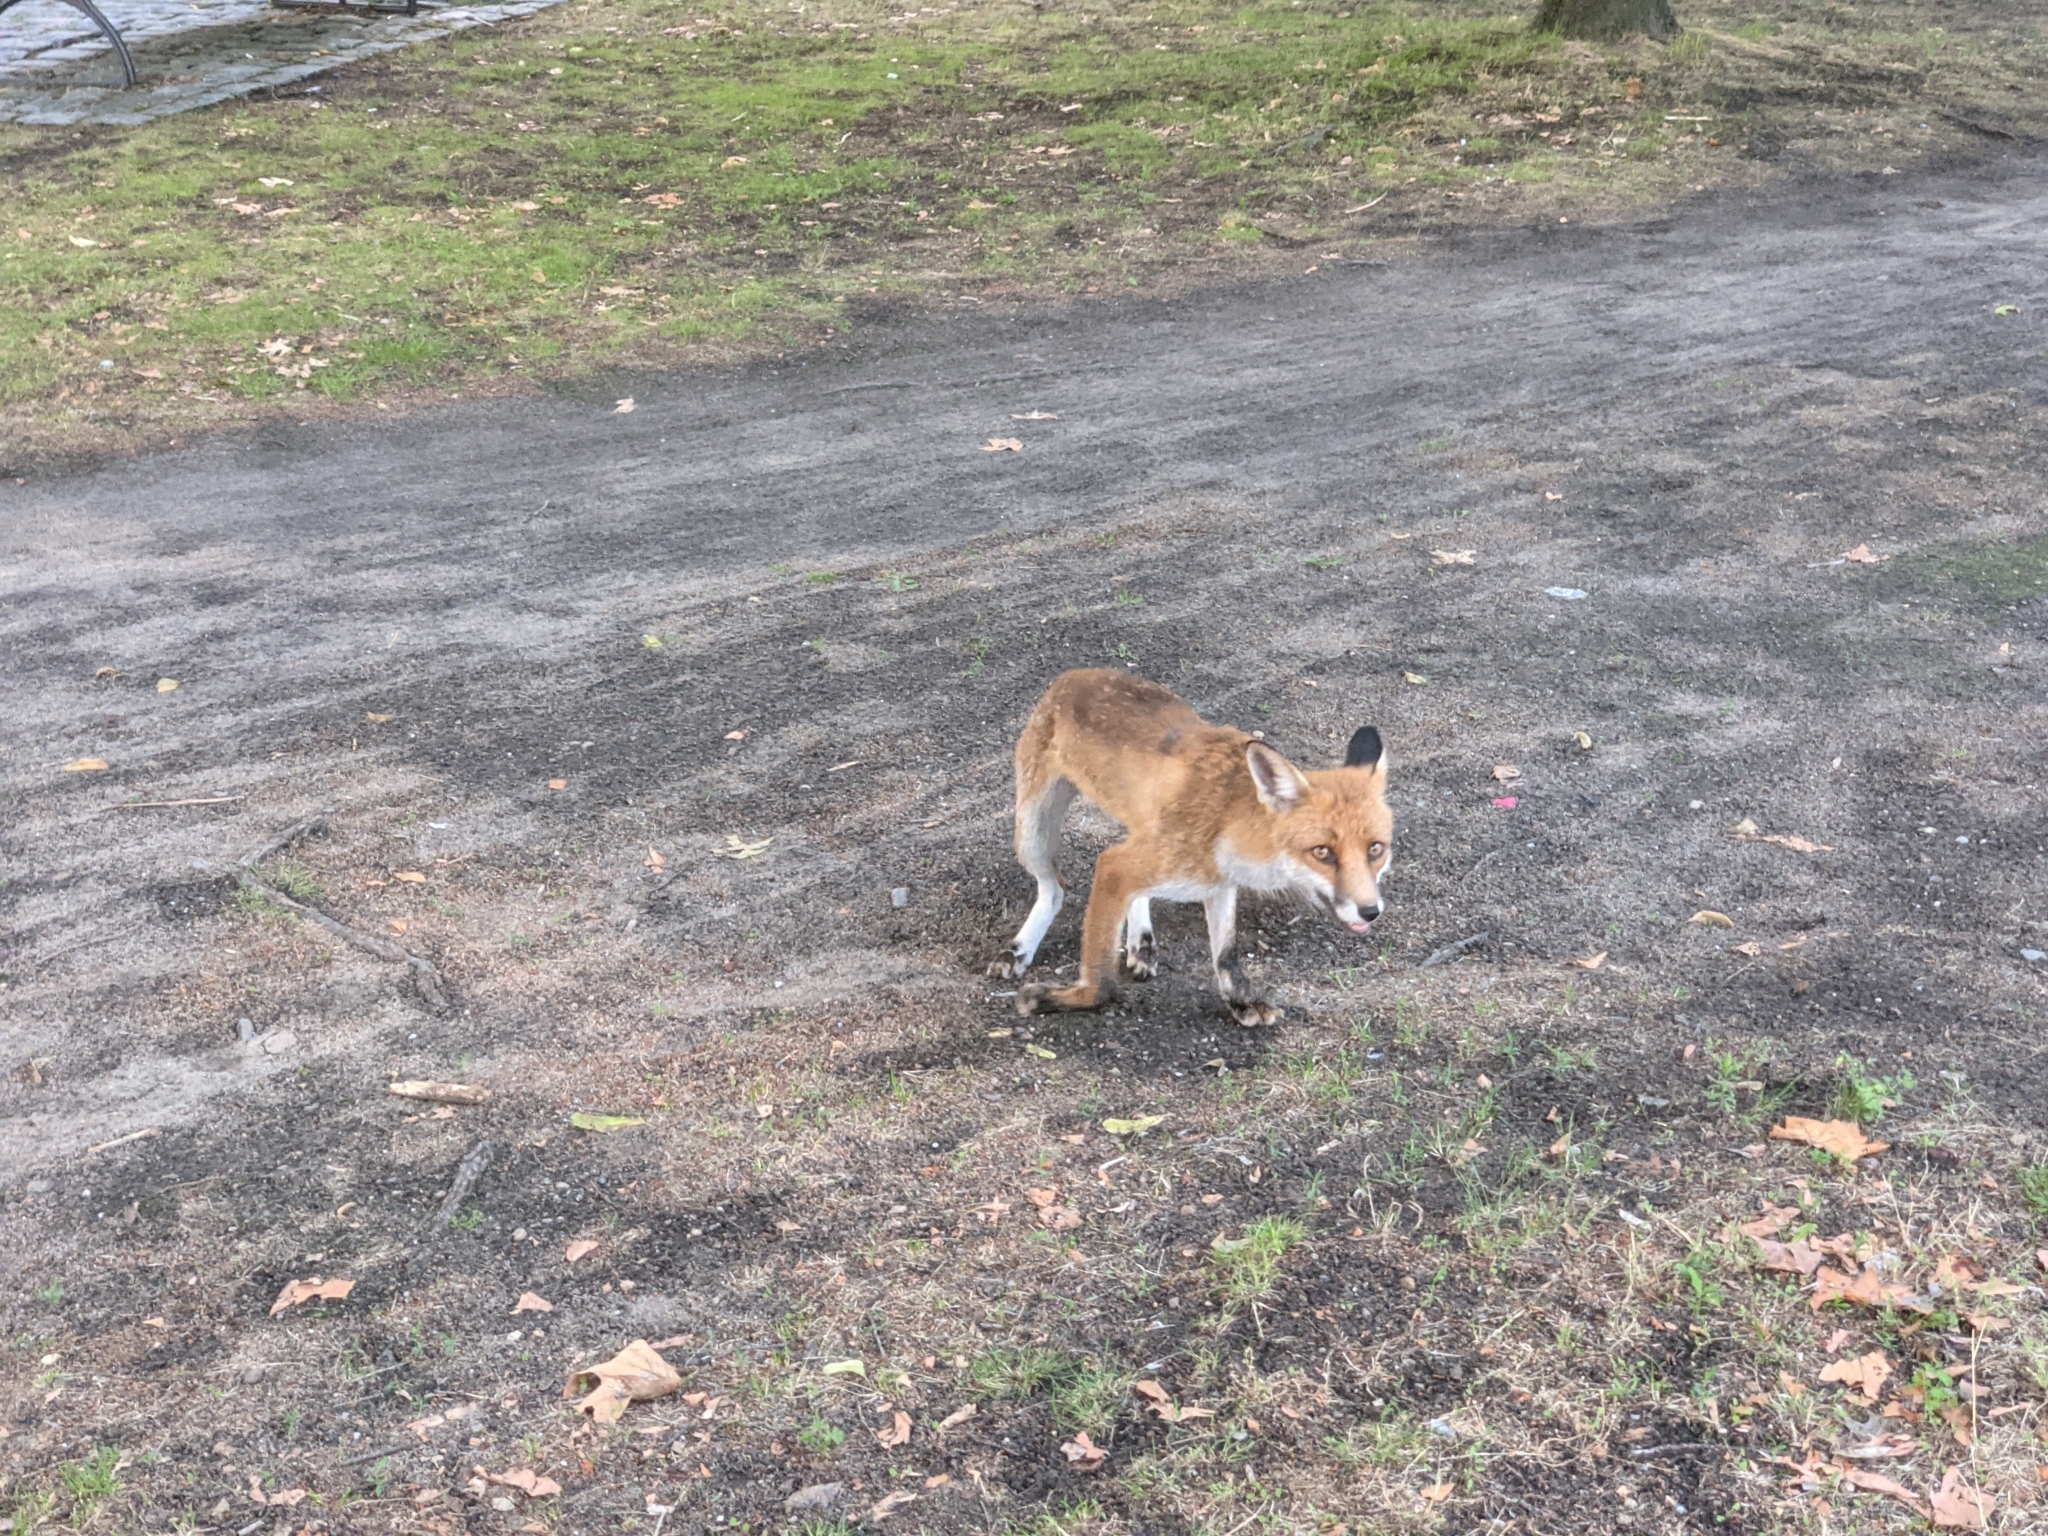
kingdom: Animalia
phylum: Chordata
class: Mammalia
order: Carnivora
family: Canidae
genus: Vulpes
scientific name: Vulpes vulpes
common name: Red fox
